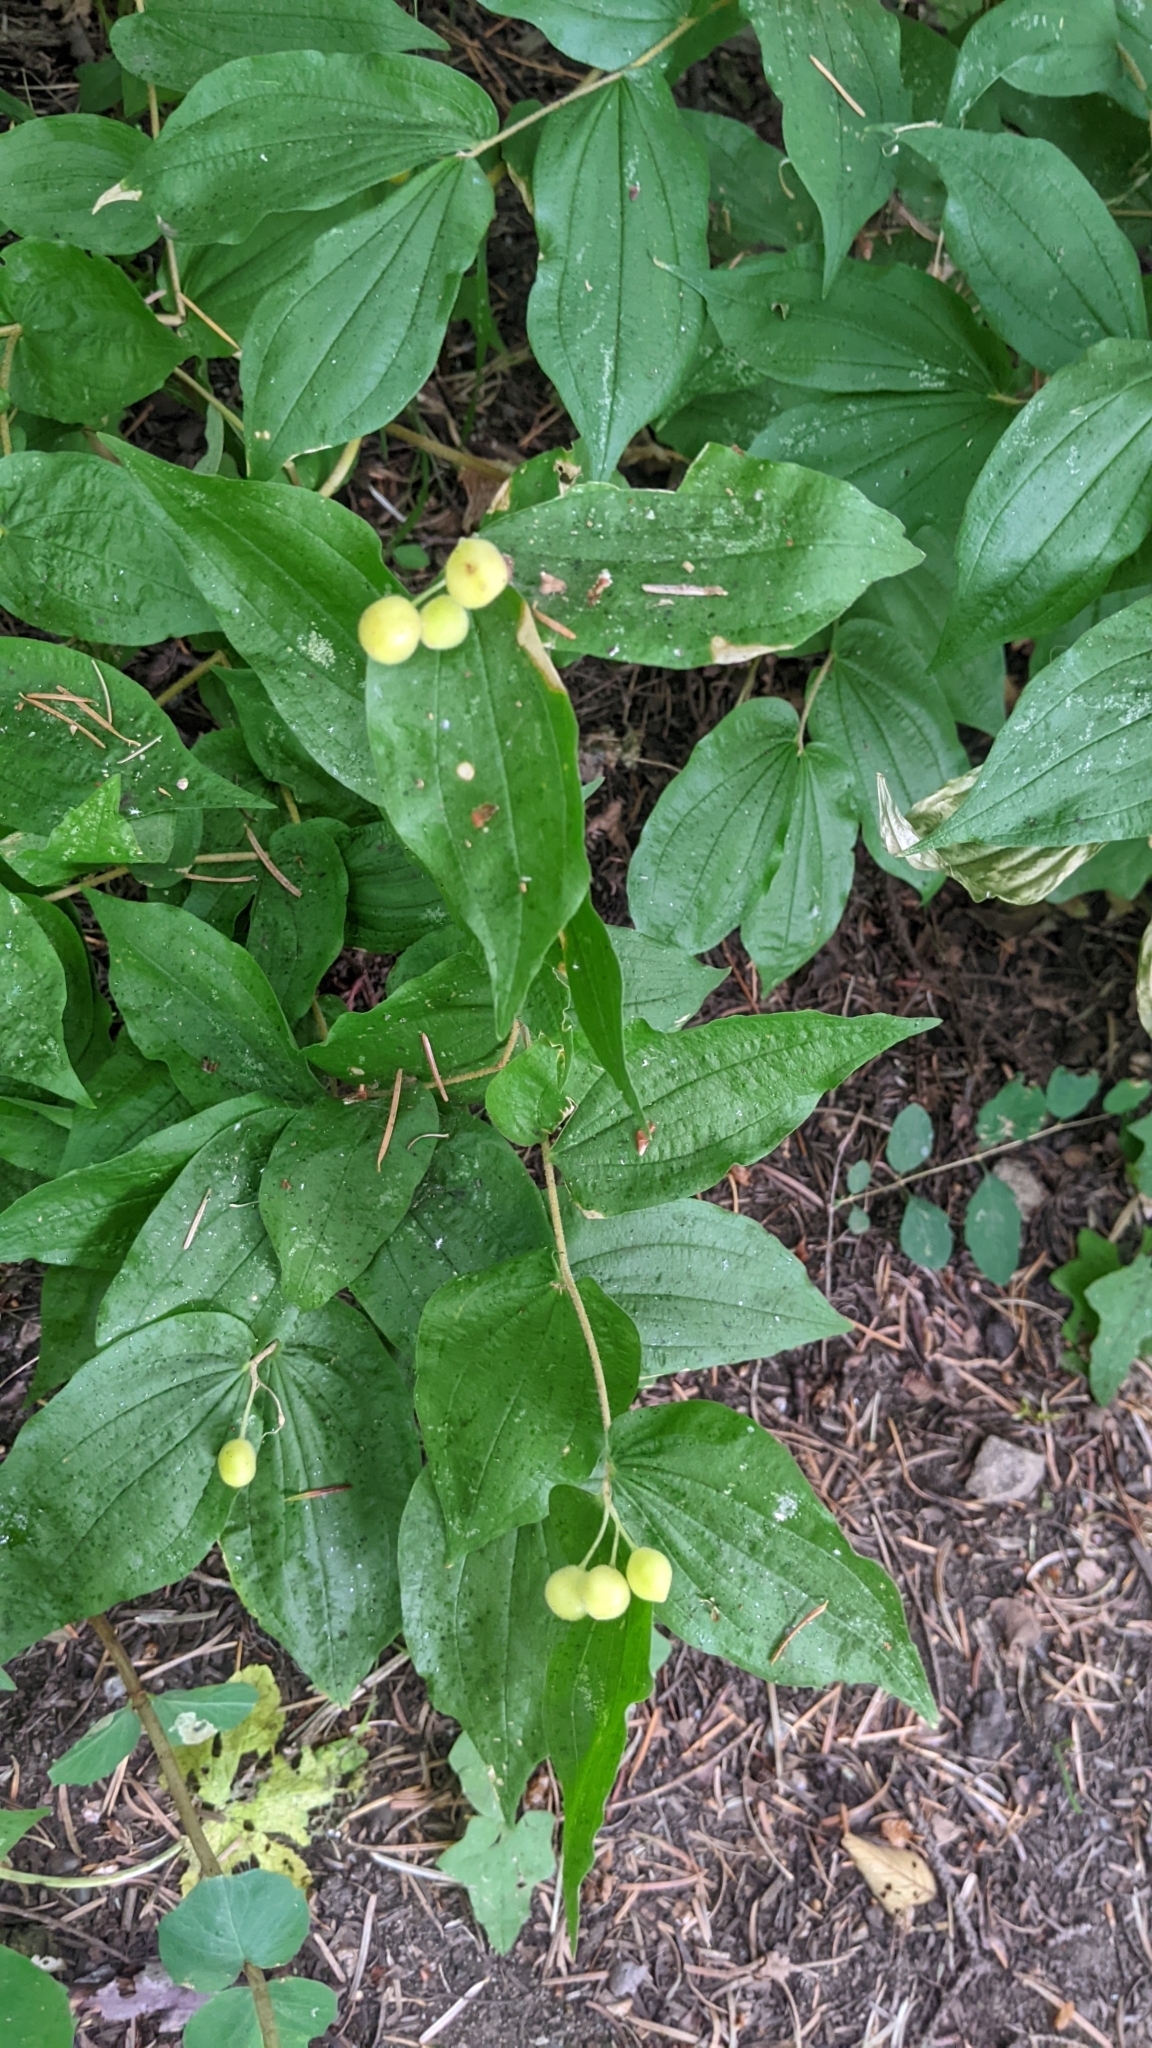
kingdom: Plantae
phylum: Tracheophyta
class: Liliopsida
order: Liliales
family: Liliaceae
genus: Prosartes
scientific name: Prosartes hookeri
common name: Fairy-bells
